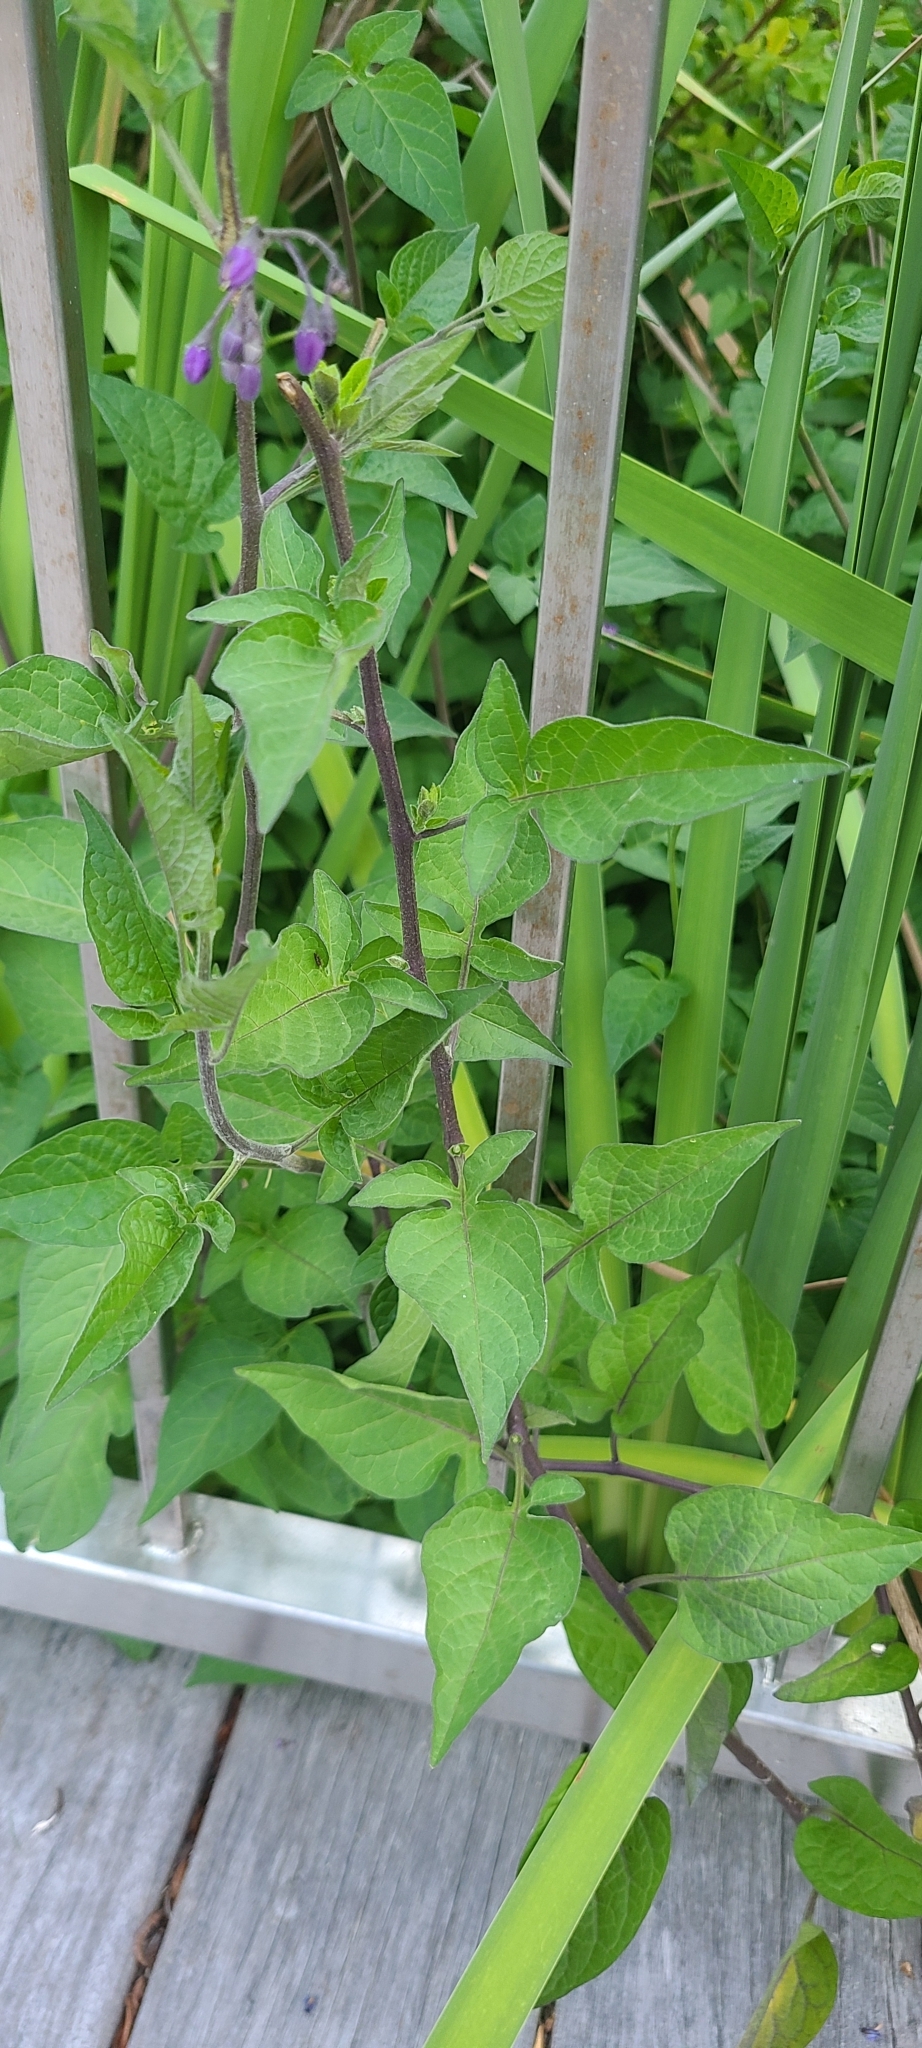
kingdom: Plantae
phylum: Tracheophyta
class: Magnoliopsida
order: Solanales
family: Solanaceae
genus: Solanum
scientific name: Solanum dulcamara
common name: Climbing nightshade
